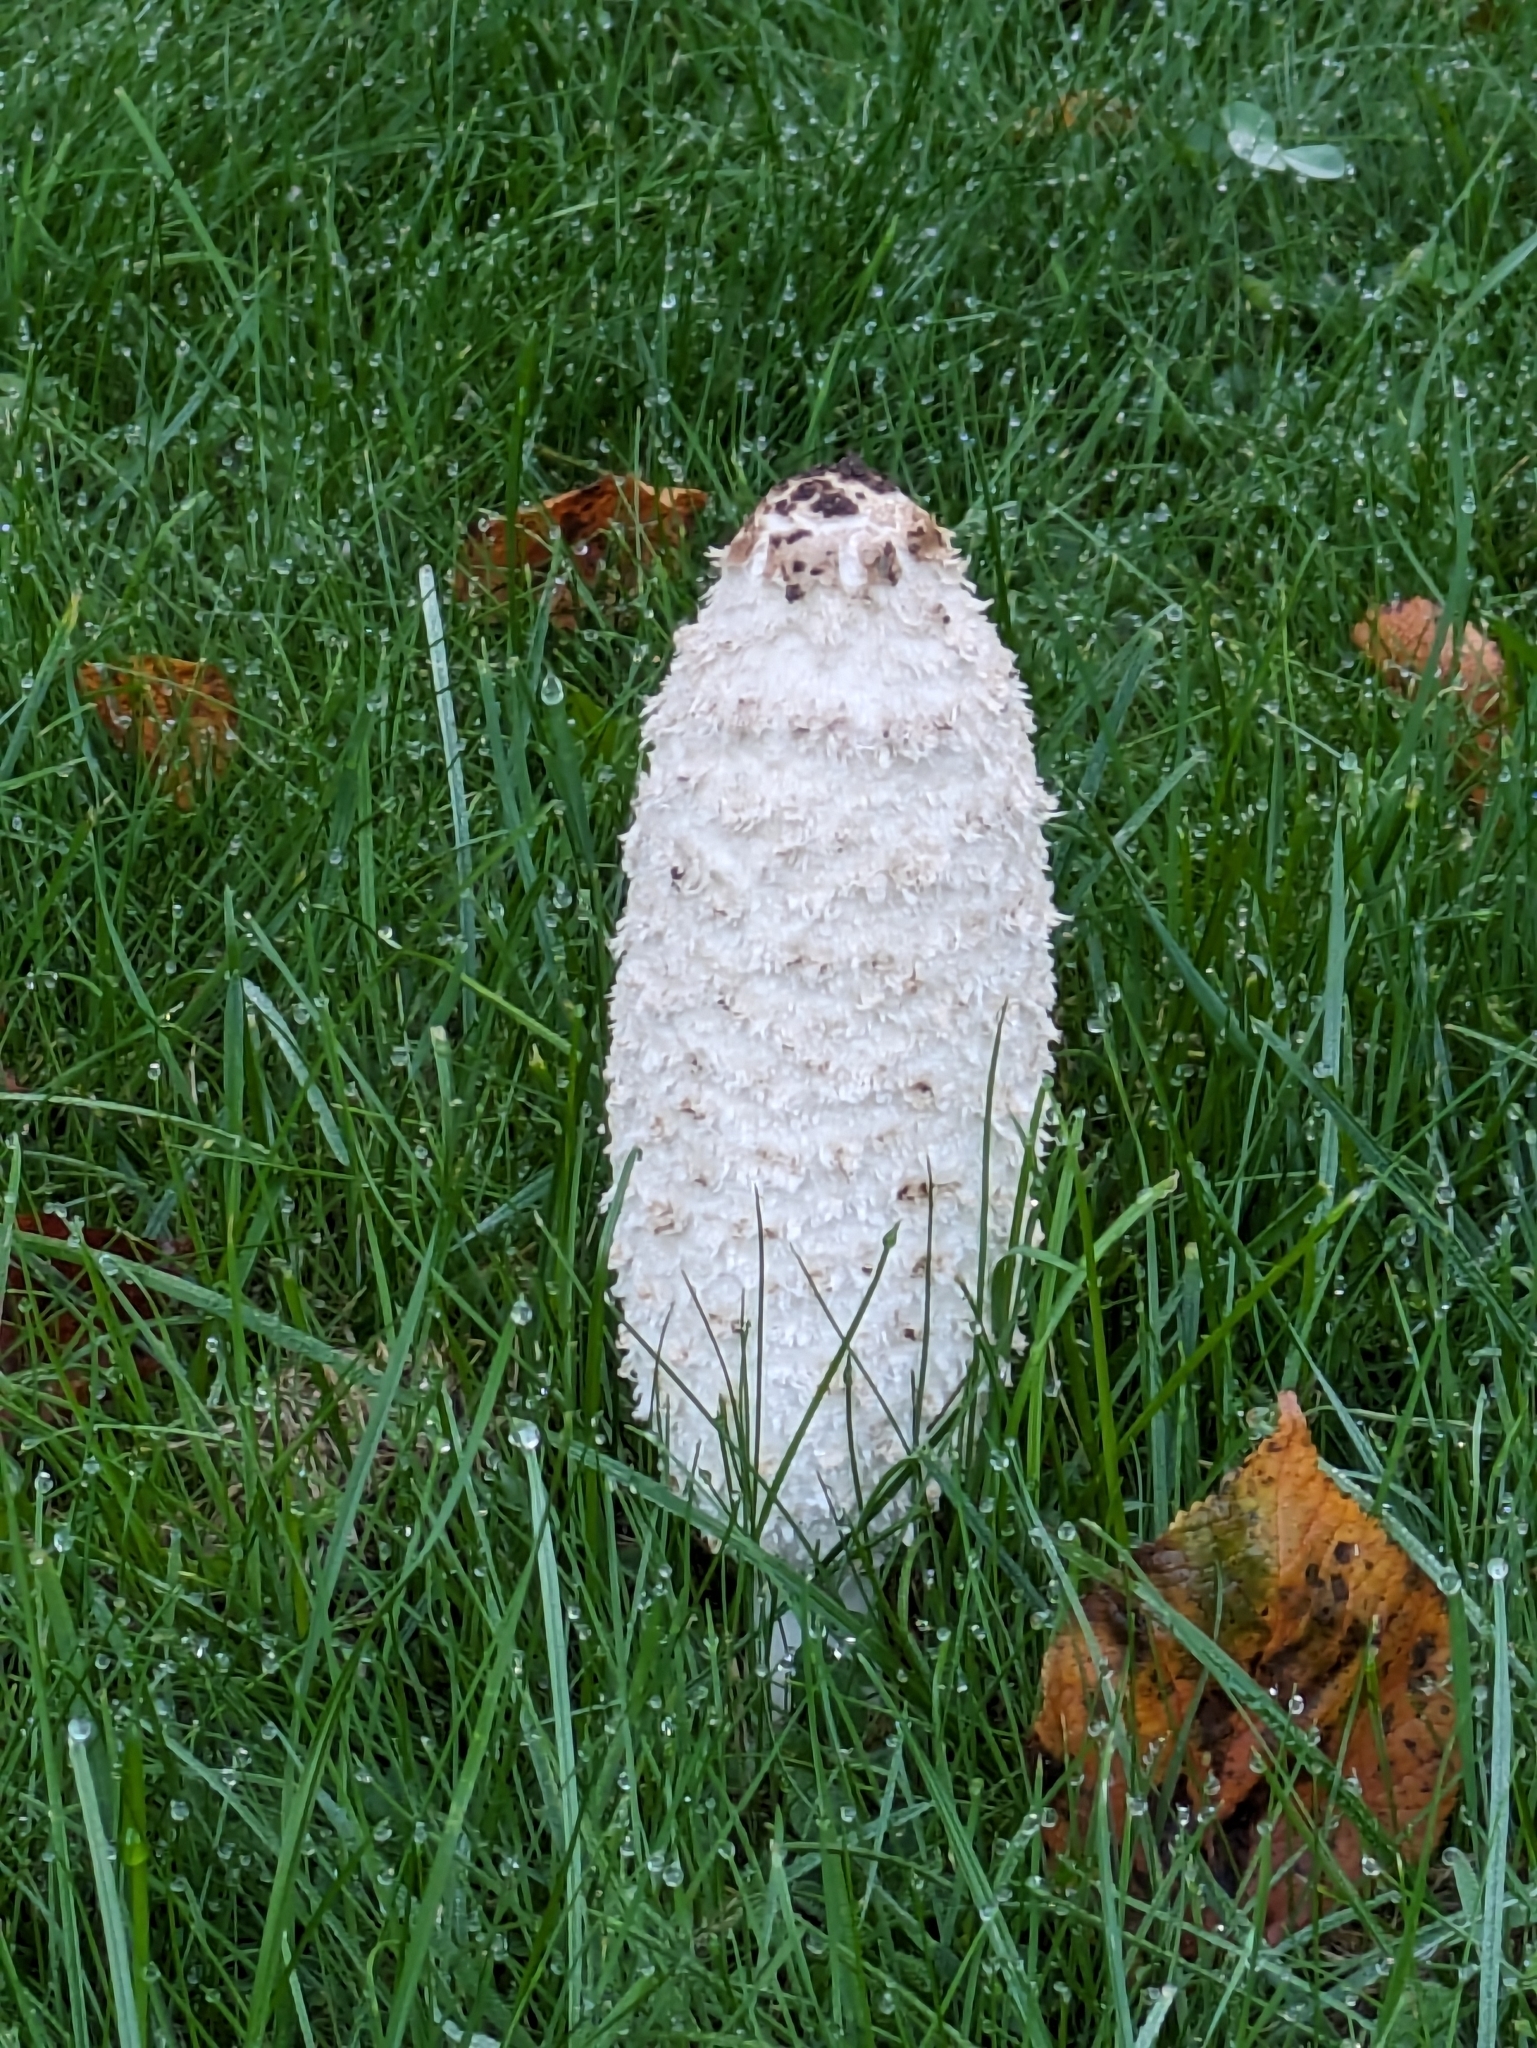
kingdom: Fungi
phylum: Basidiomycota
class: Agaricomycetes
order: Agaricales
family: Agaricaceae
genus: Coprinus
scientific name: Coprinus comatus
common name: Lawyer's wig
